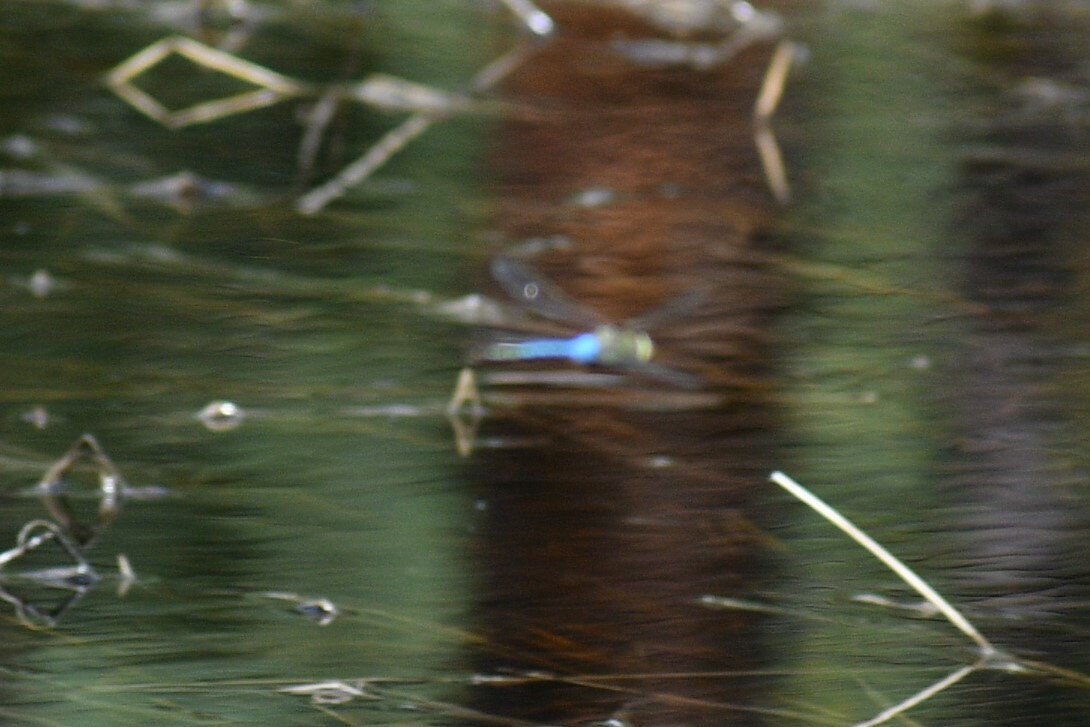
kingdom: Animalia
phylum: Arthropoda
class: Insecta
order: Odonata
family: Aeshnidae
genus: Anax
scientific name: Anax junius
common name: Common green darner
